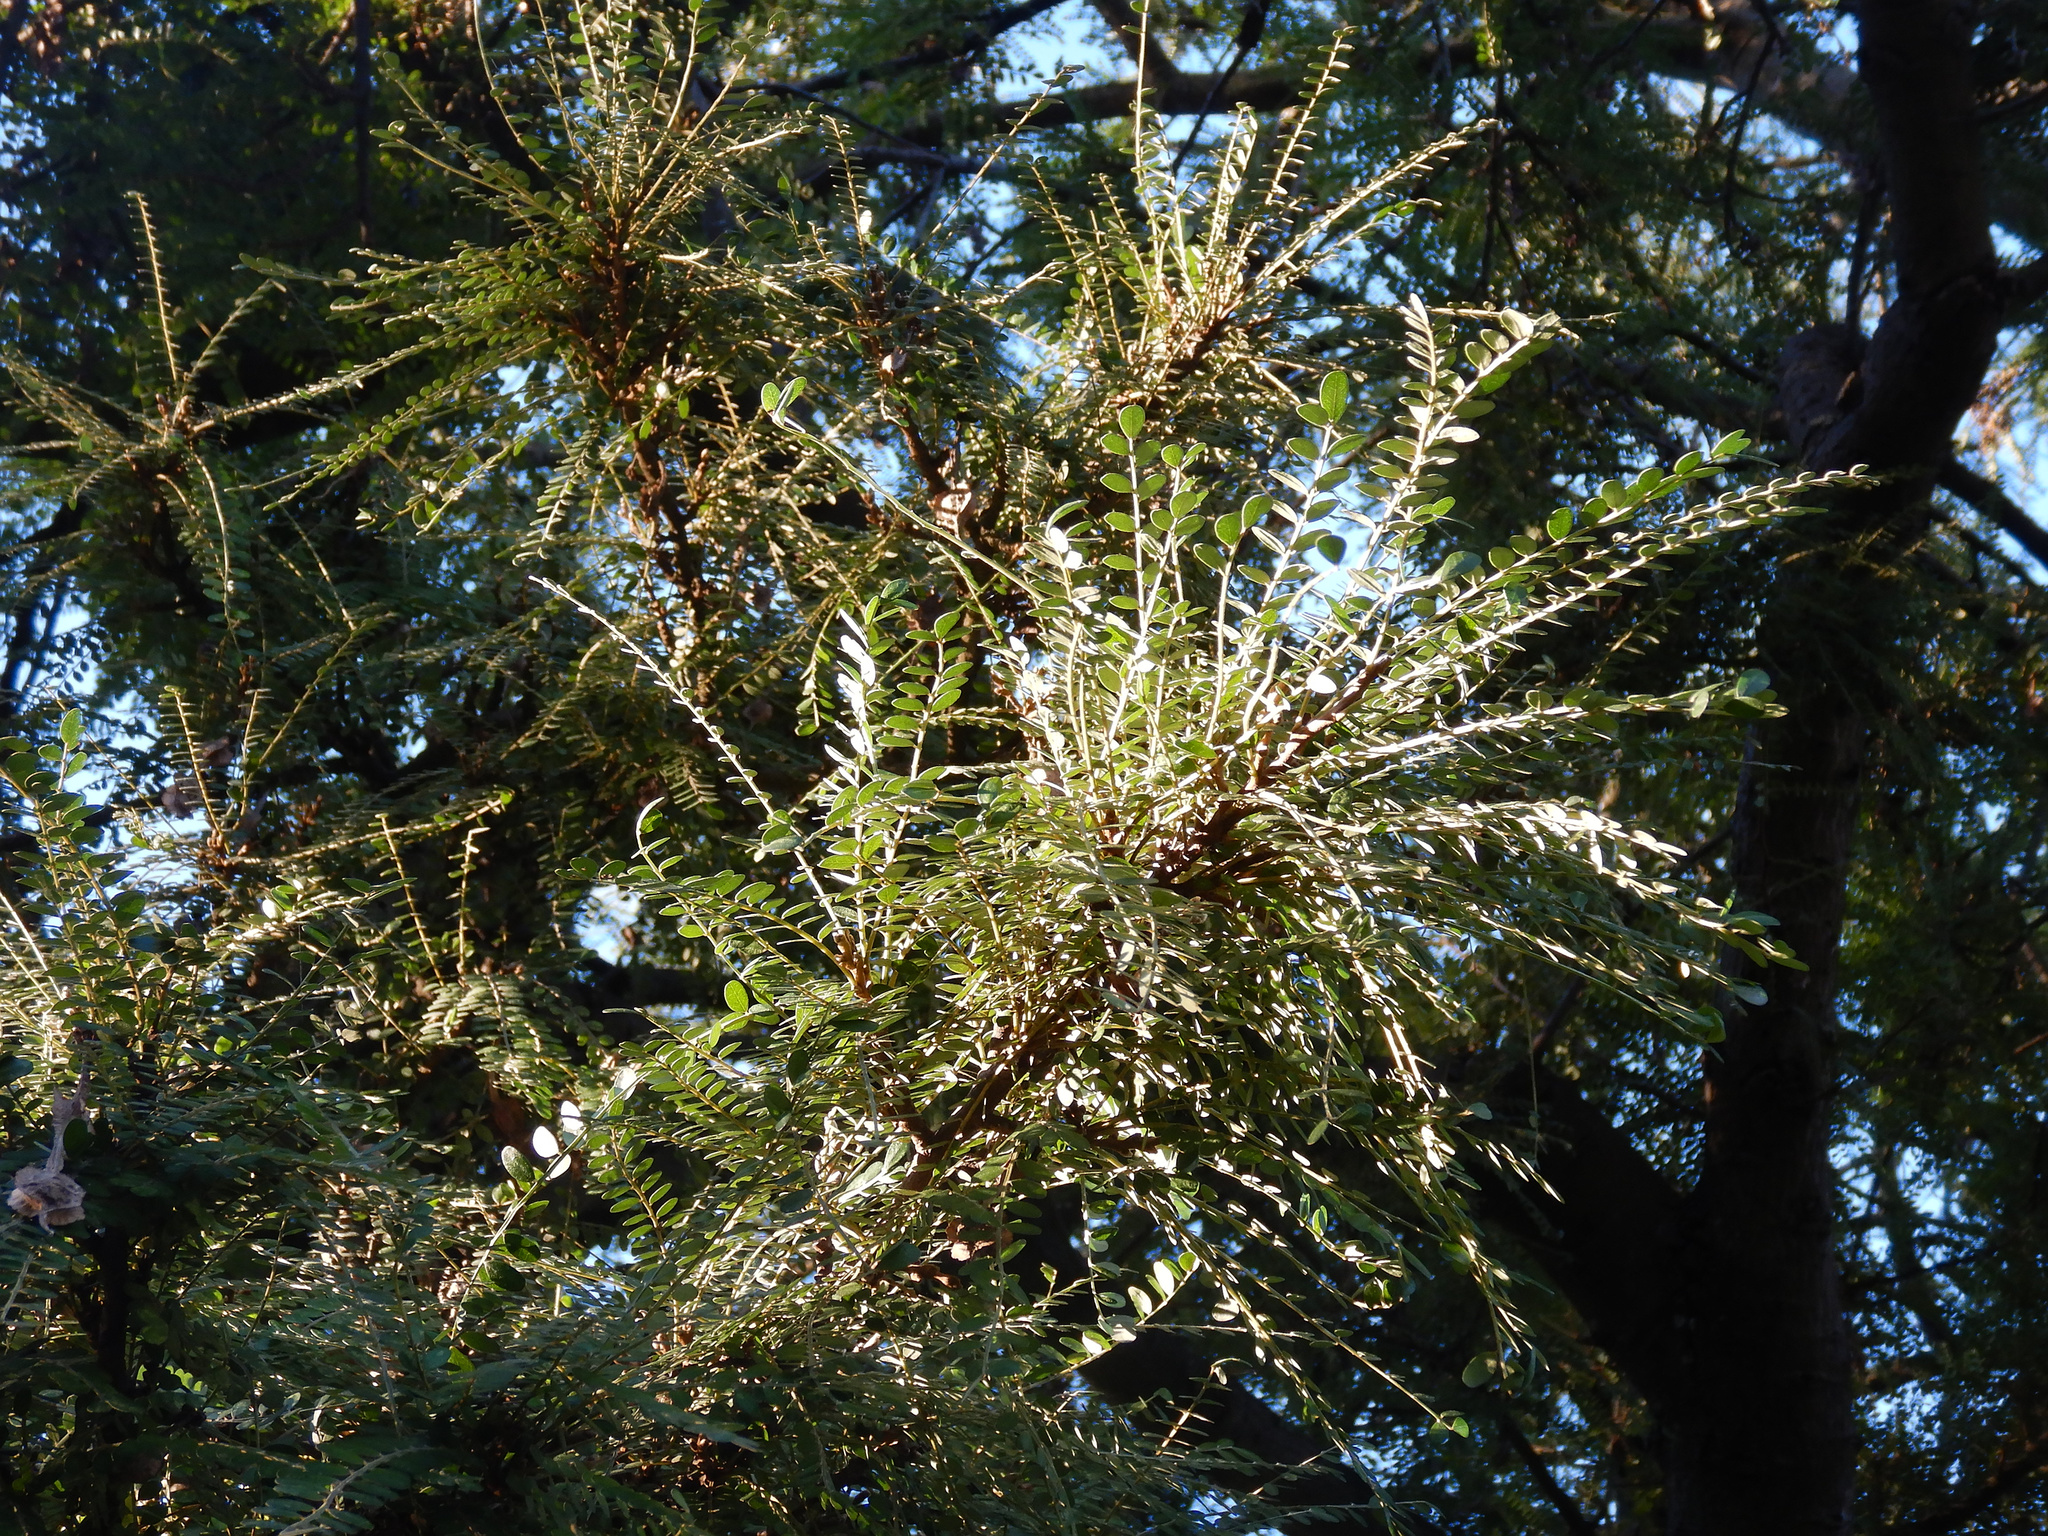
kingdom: Plantae
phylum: Tracheophyta
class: Magnoliopsida
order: Fabales
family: Fabaceae
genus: Sophora
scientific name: Sophora microphylla
